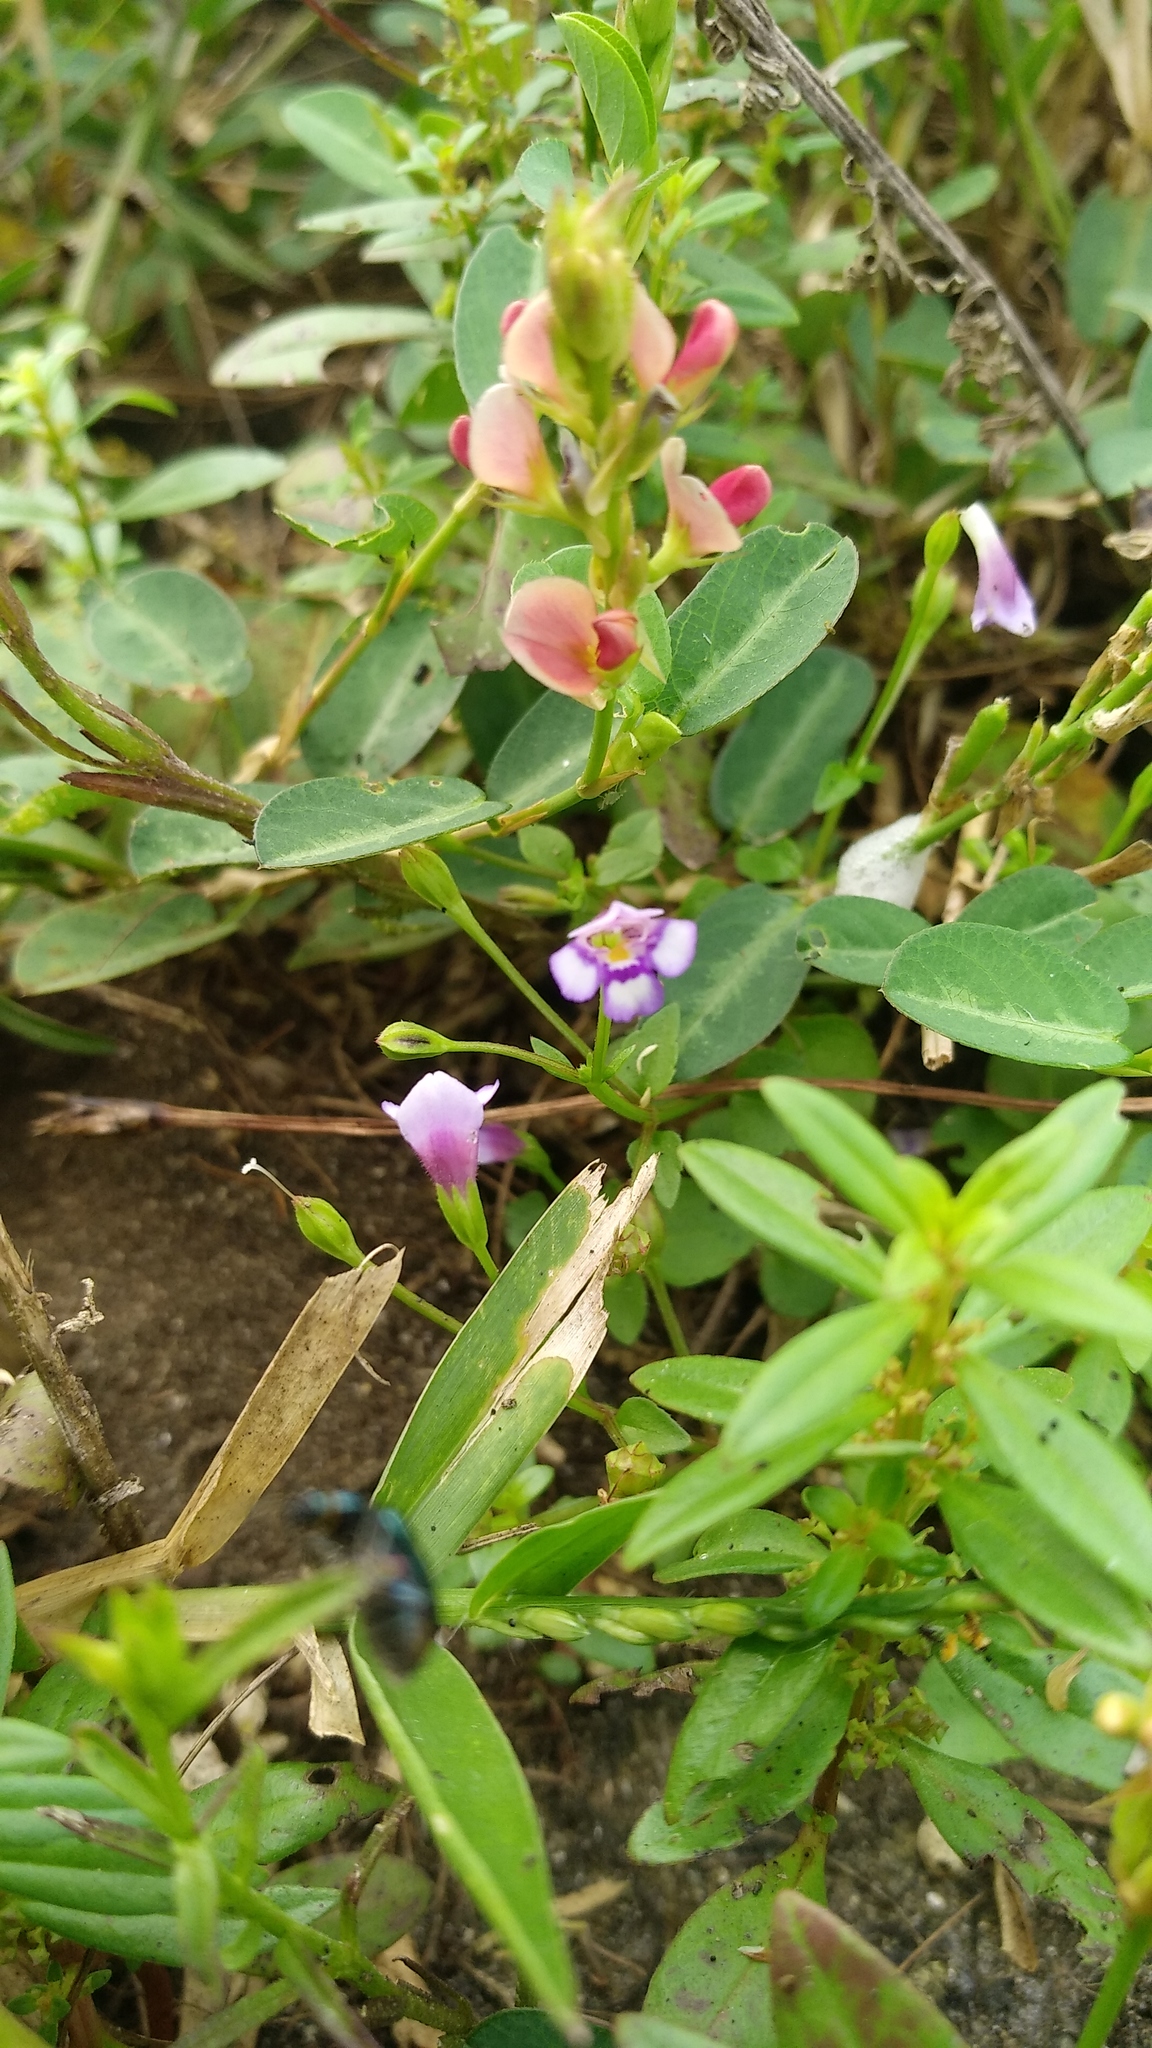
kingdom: Plantae
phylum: Tracheophyta
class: Magnoliopsida
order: Lamiales
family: Linderniaceae
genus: Torenia
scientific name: Torenia crustacea
